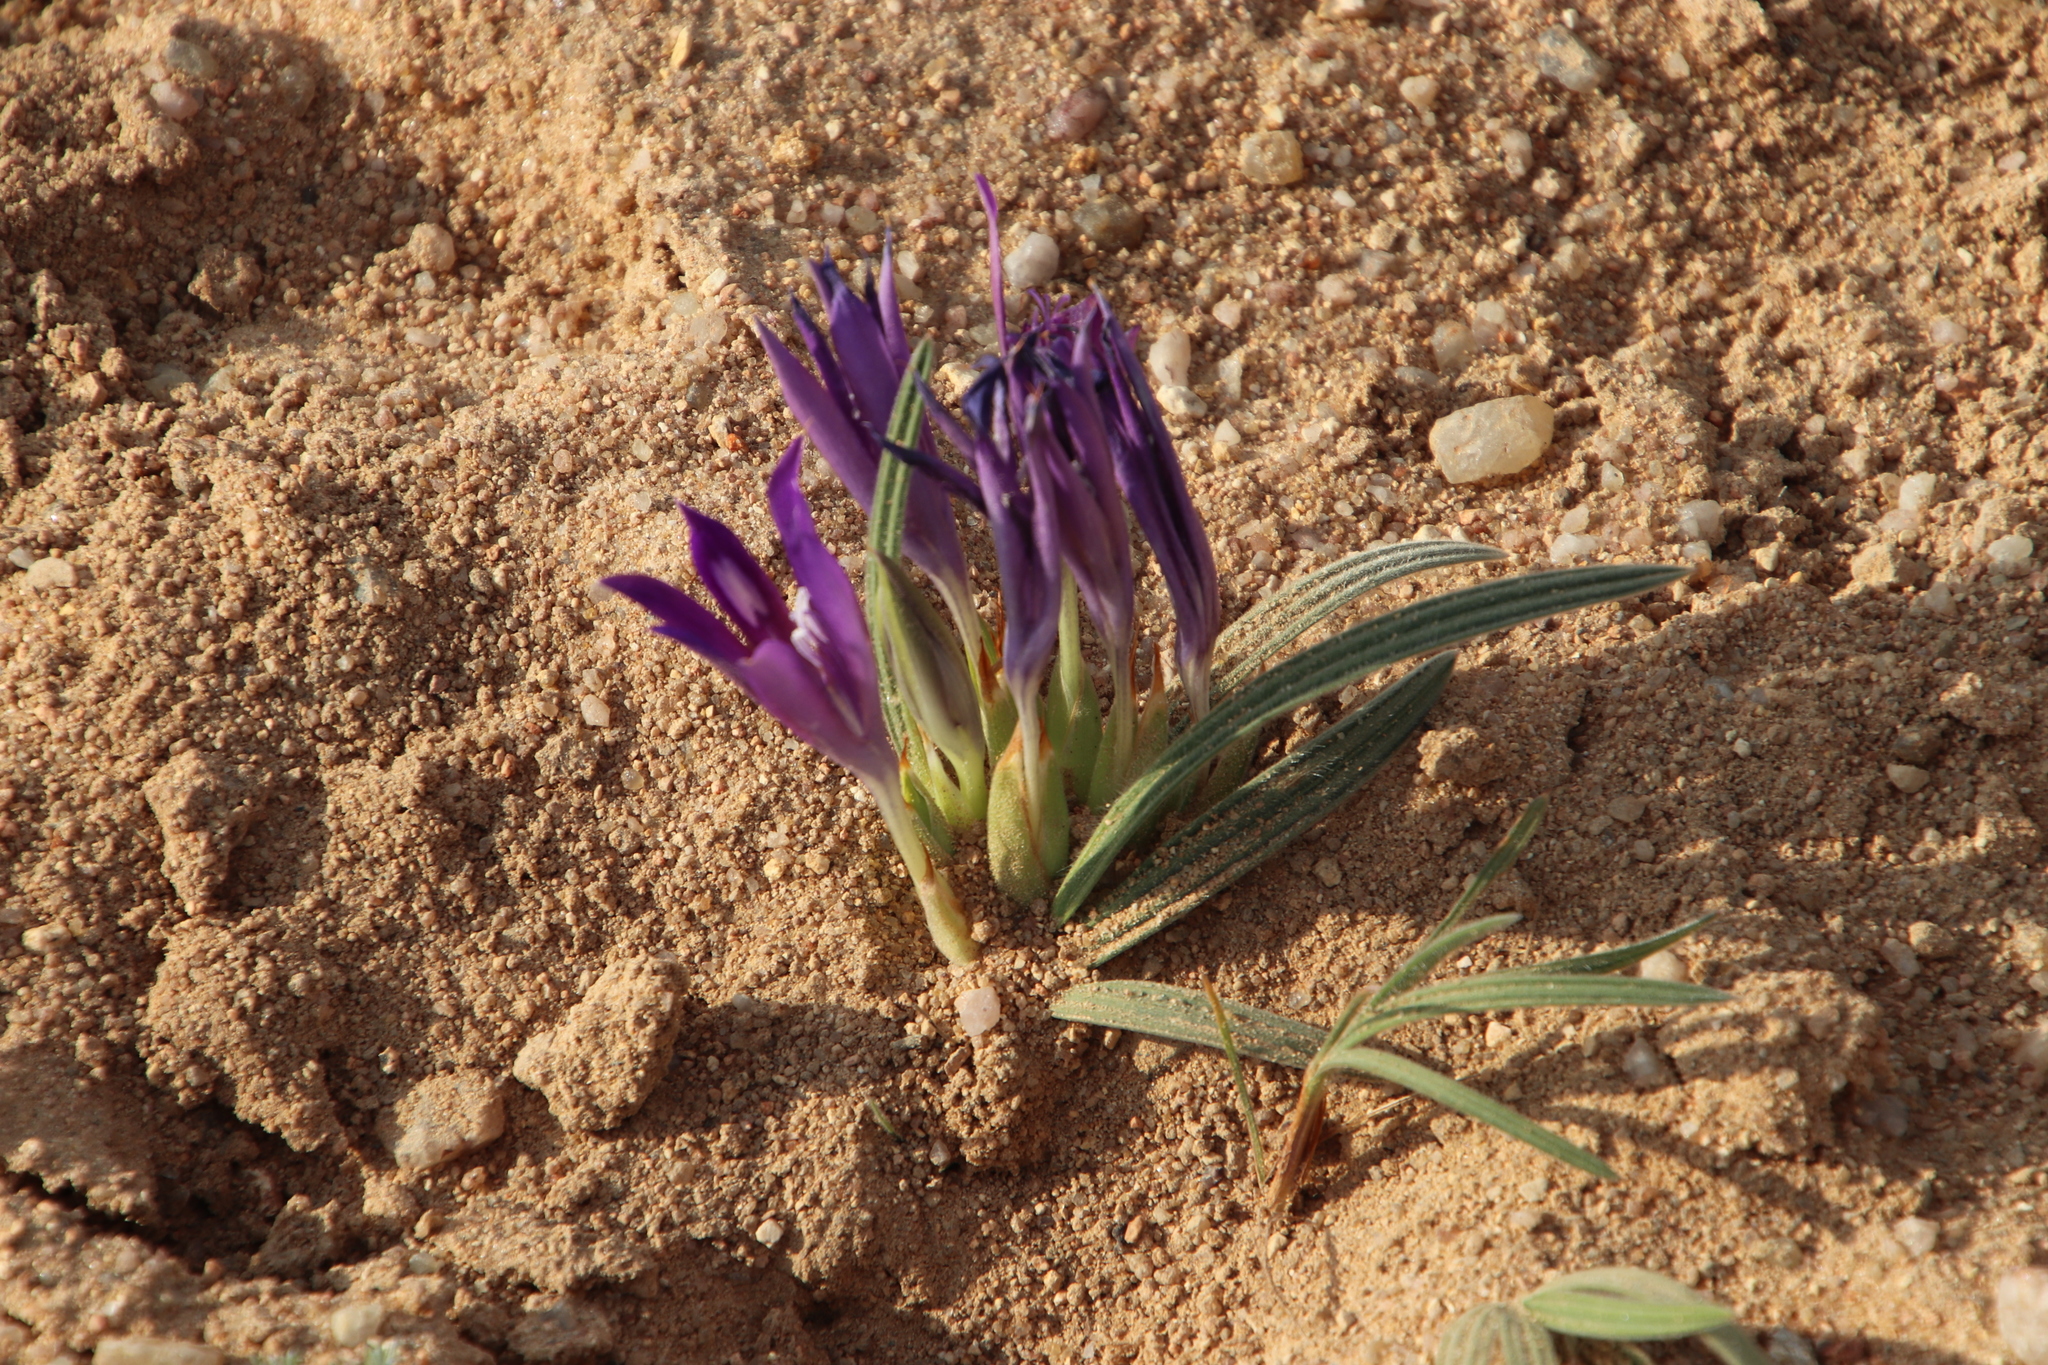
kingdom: Plantae
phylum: Tracheophyta
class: Liliopsida
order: Asparagales
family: Iridaceae
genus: Babiana
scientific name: Babiana curviscapa
